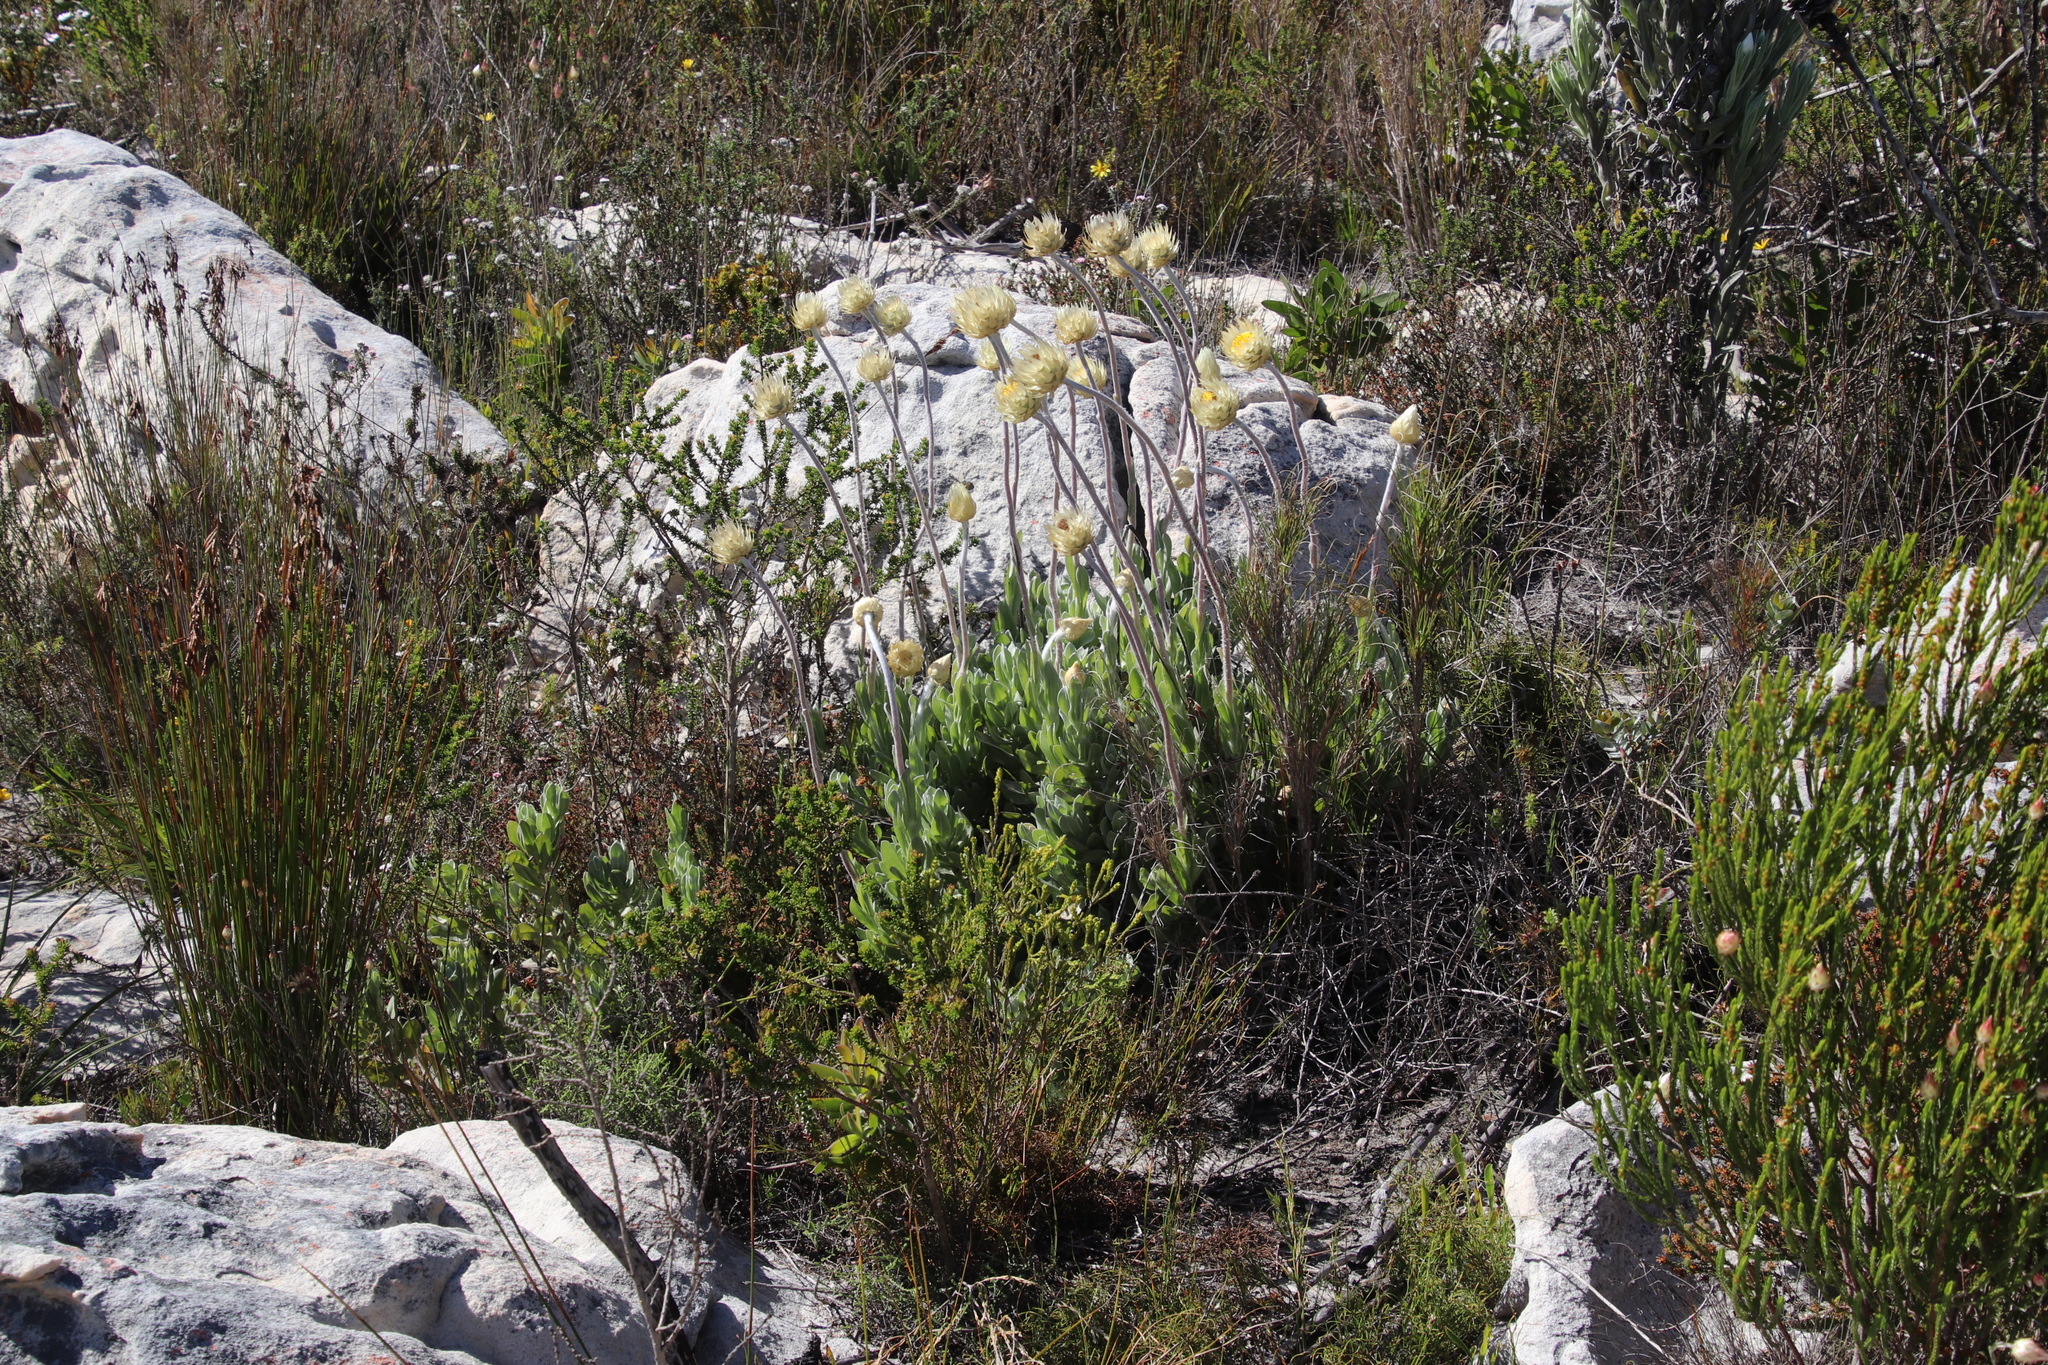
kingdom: Plantae
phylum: Tracheophyta
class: Magnoliopsida
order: Asterales
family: Asteraceae
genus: Syncarpha
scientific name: Syncarpha speciosissima
